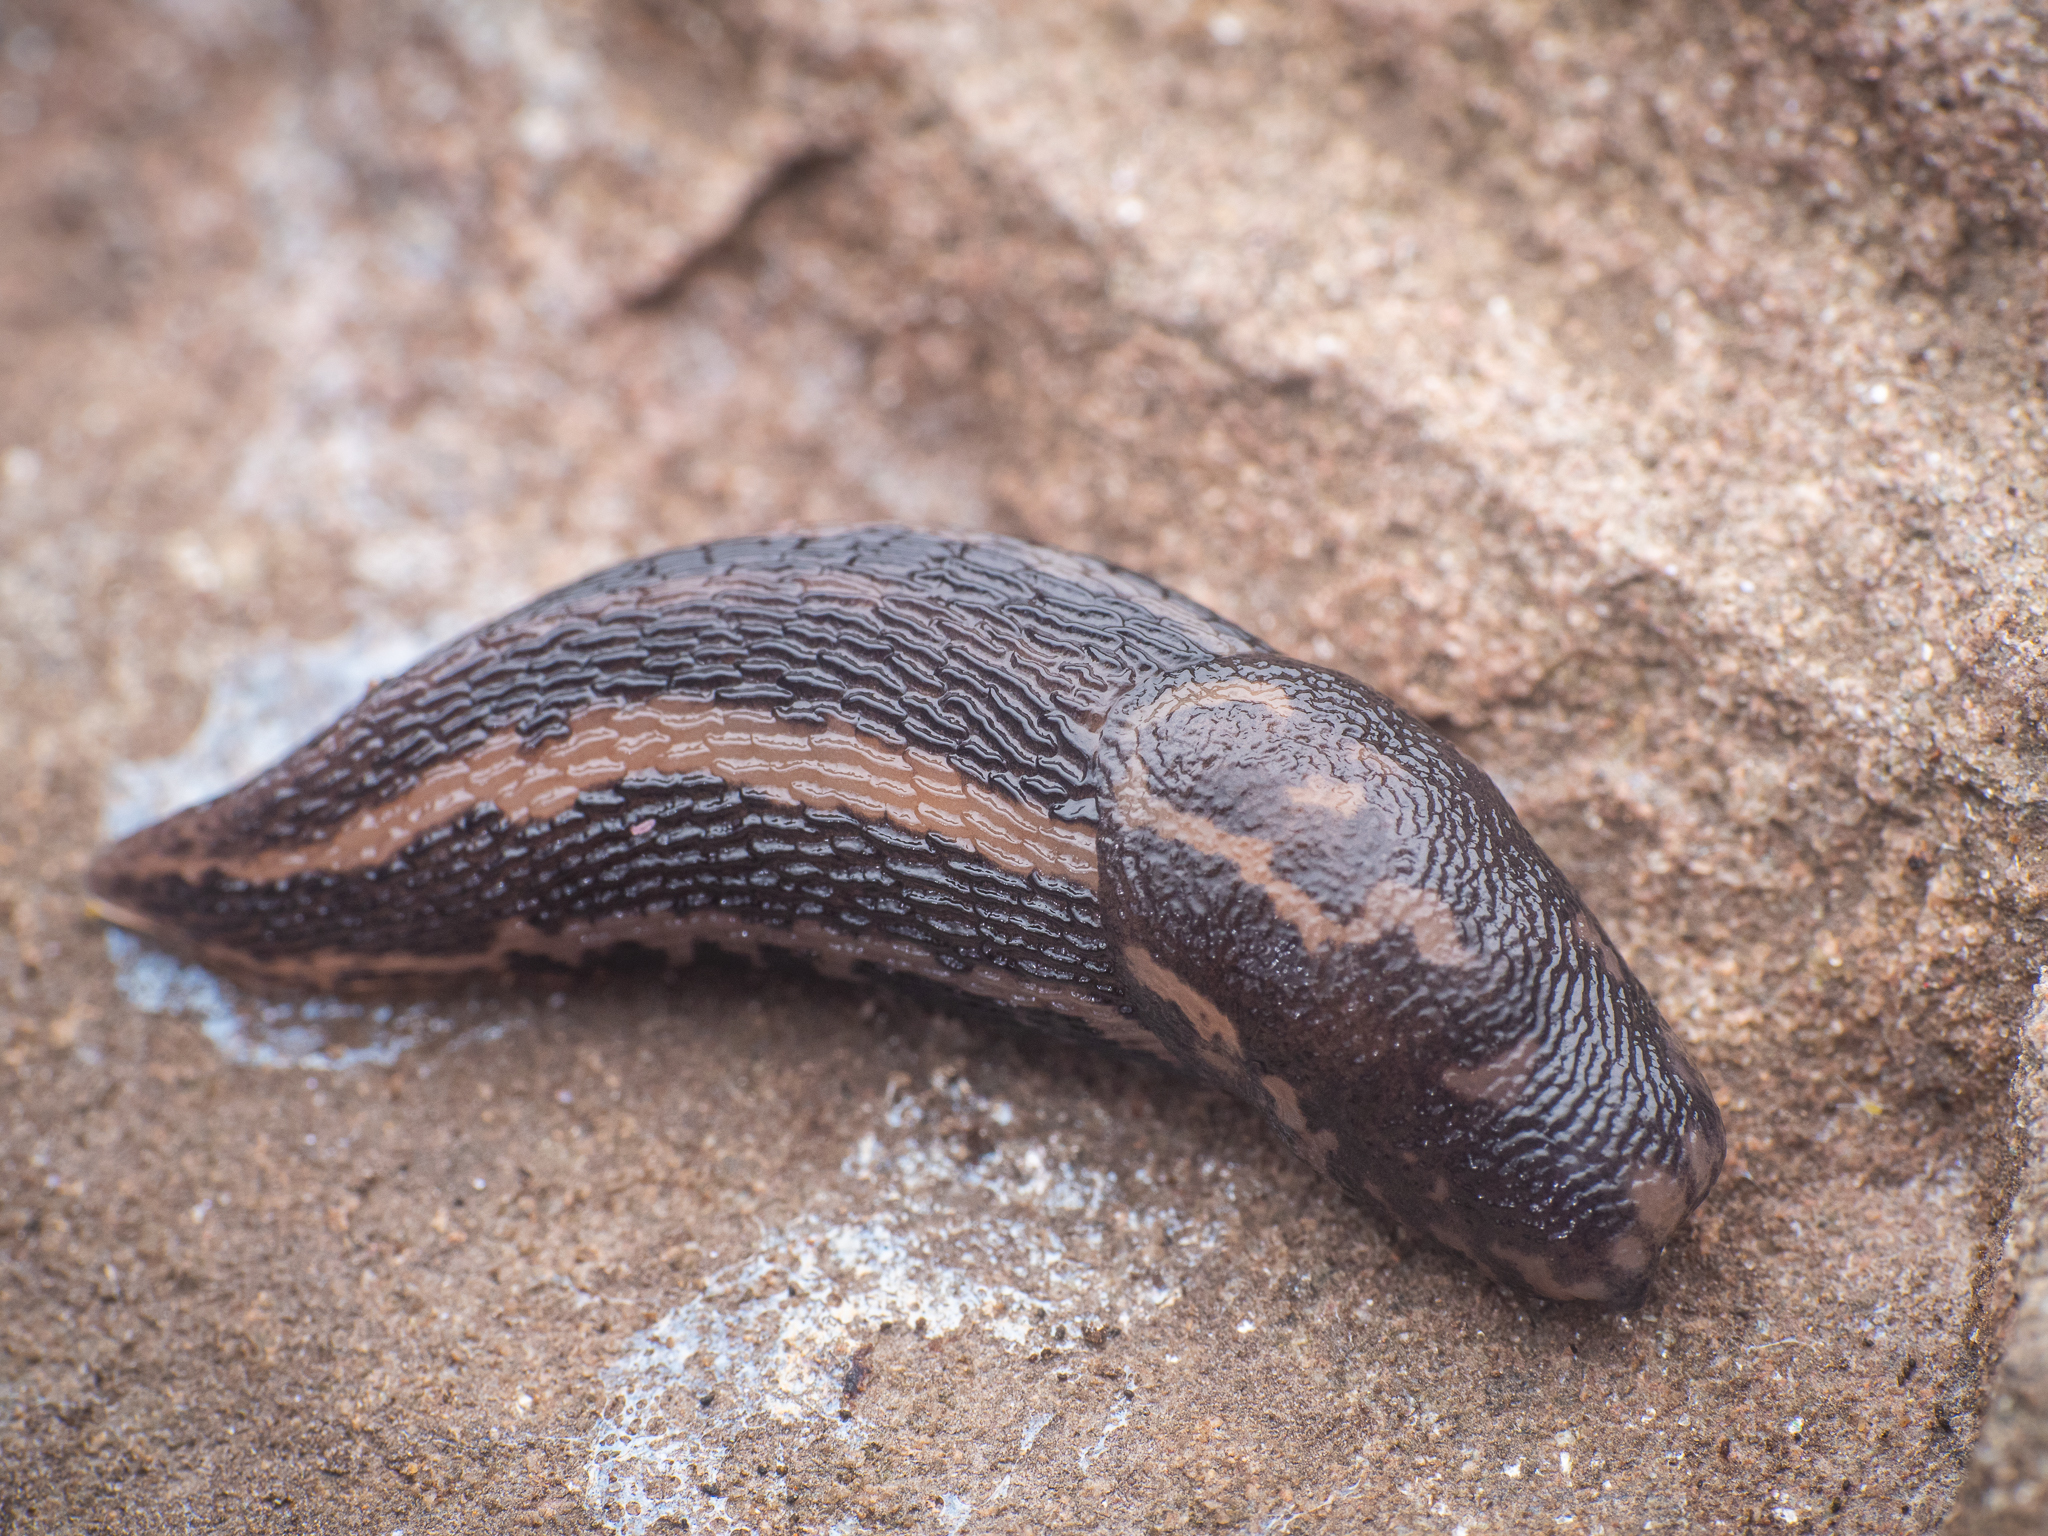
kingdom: Animalia
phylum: Mollusca
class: Gastropoda
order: Stylommatophora
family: Limacidae
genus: Limax
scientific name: Limax maximus
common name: Great grey slug
